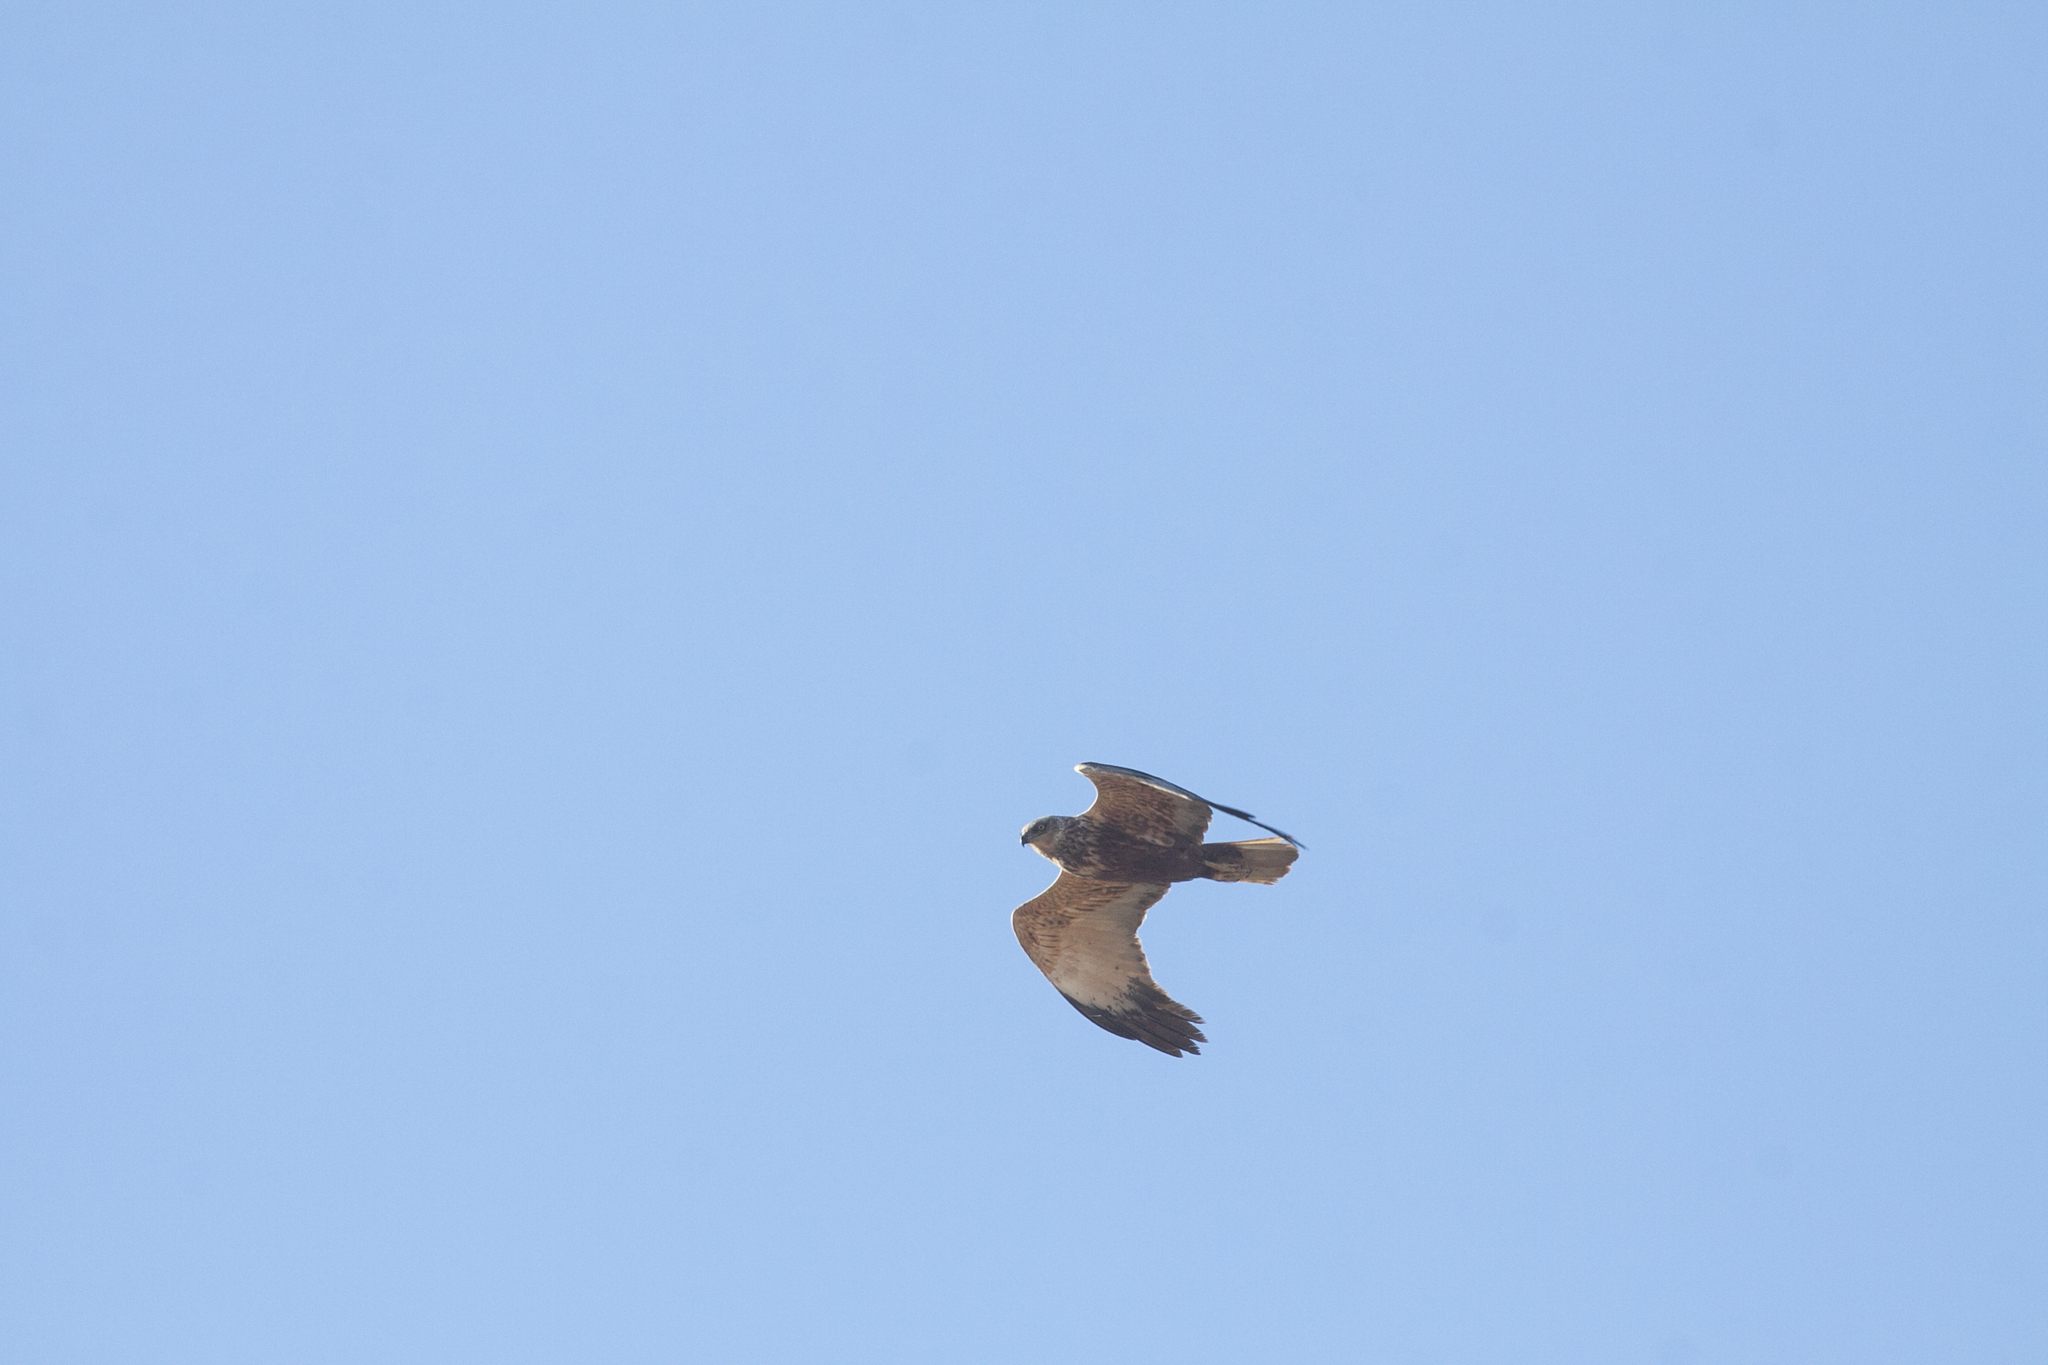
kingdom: Animalia
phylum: Chordata
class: Aves
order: Accipitriformes
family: Accipitridae
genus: Circus
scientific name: Circus aeruginosus
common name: Western marsh harrier
